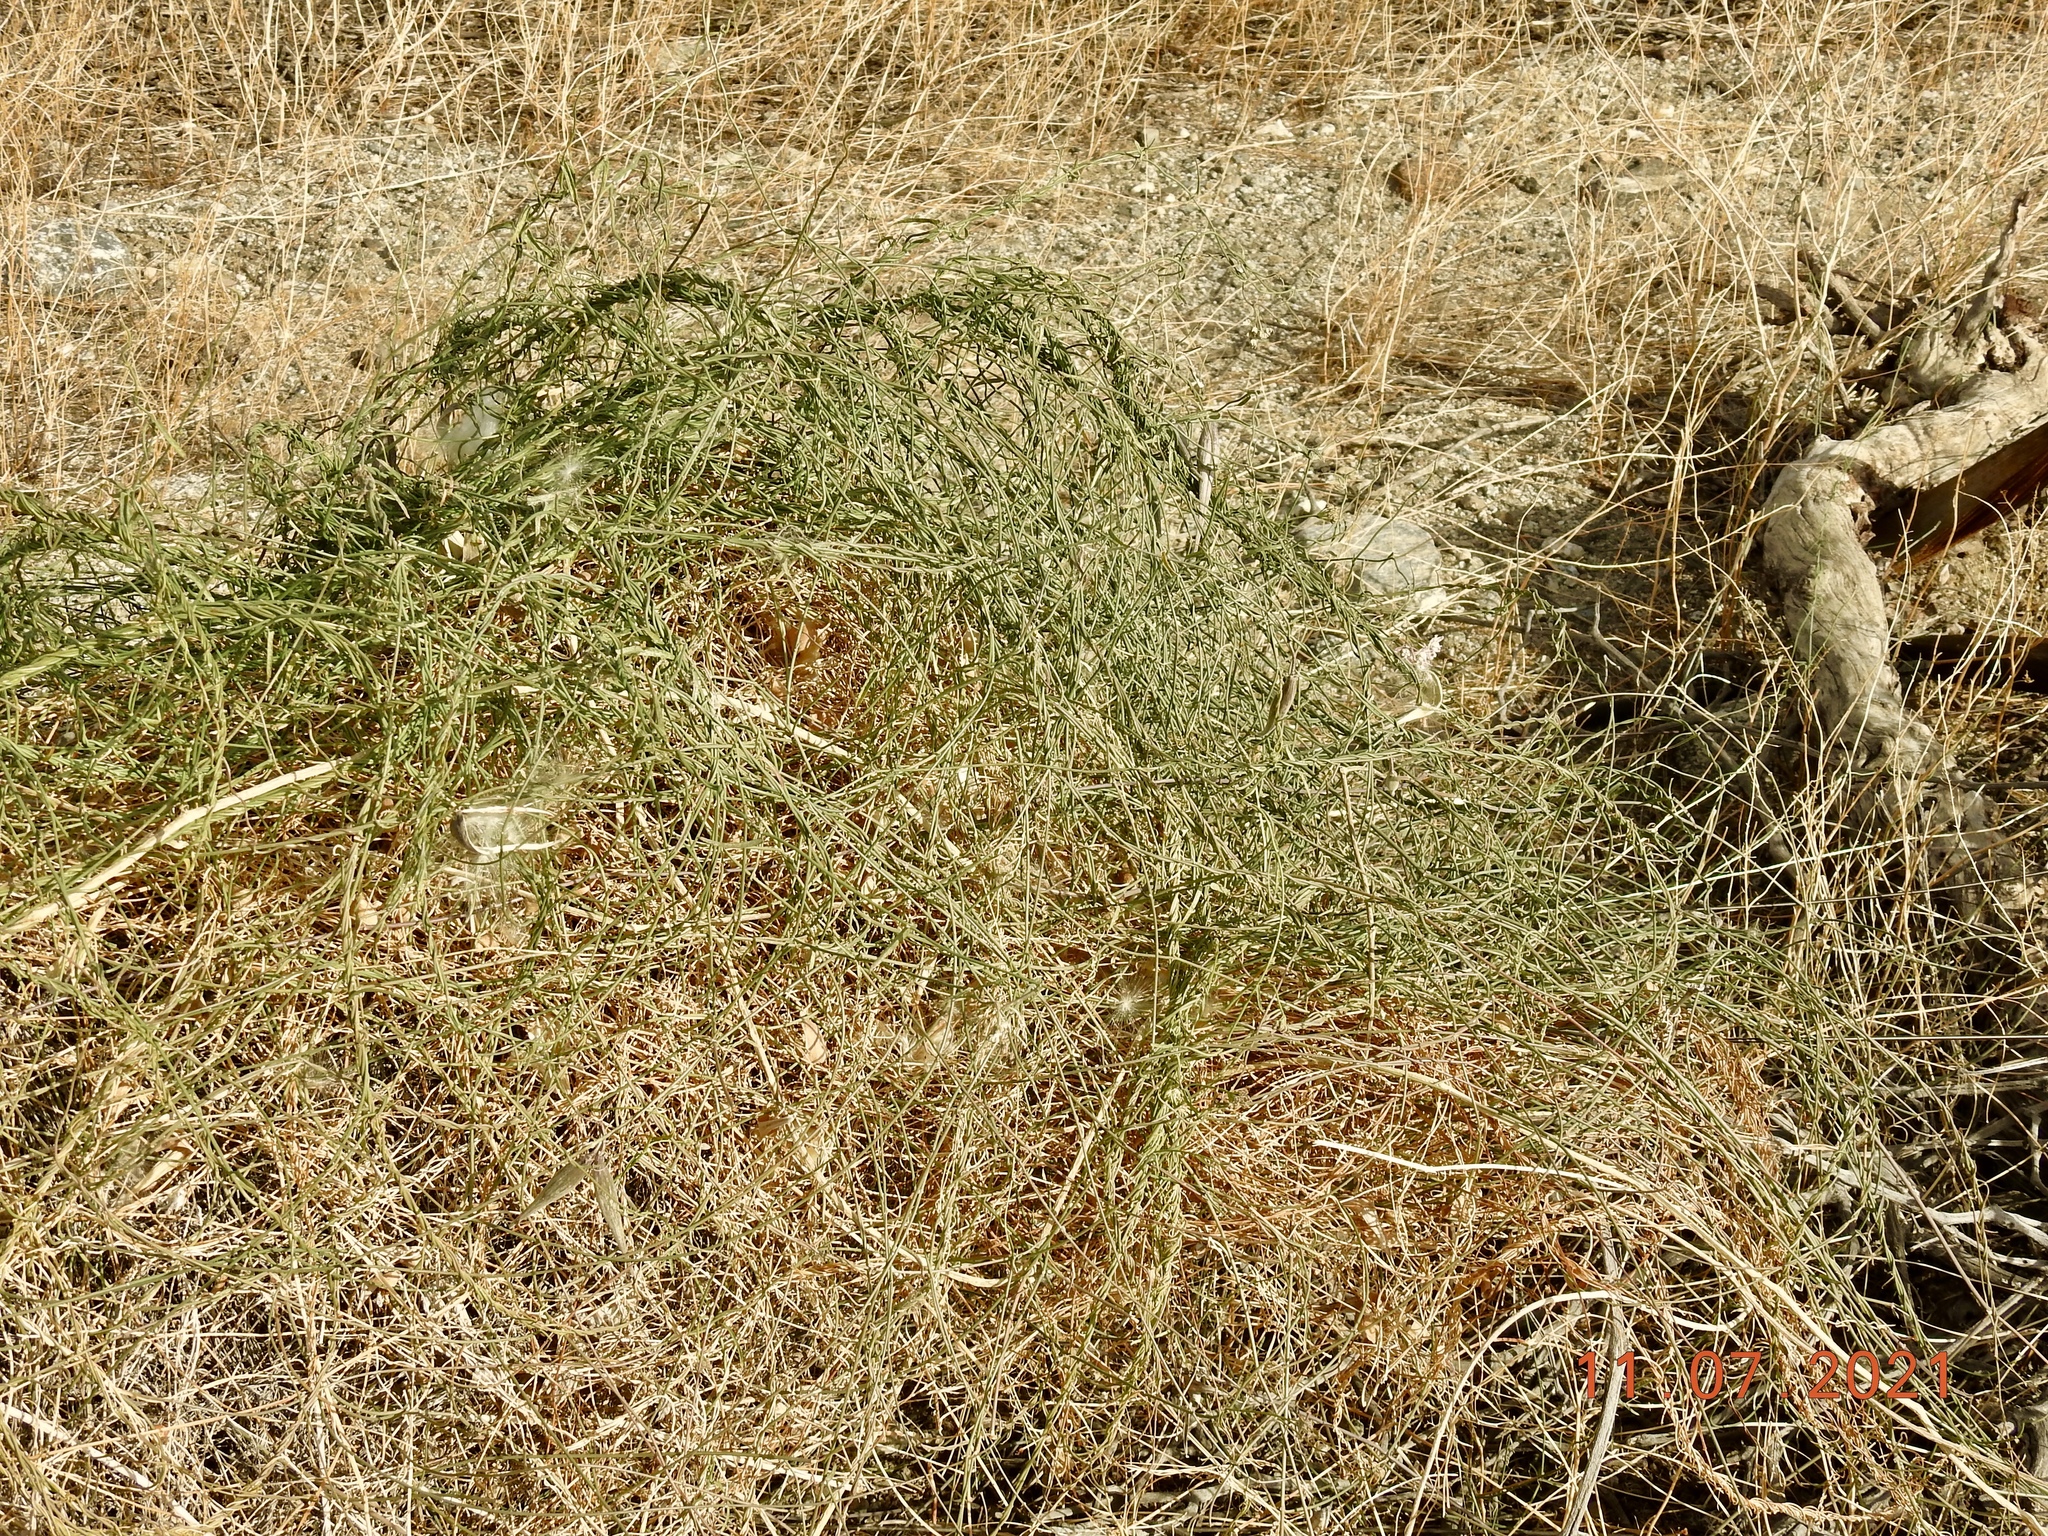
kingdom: Plantae
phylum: Tracheophyta
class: Magnoliopsida
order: Gentianales
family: Apocynaceae
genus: Funastrum
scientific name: Funastrum heterophyllum
